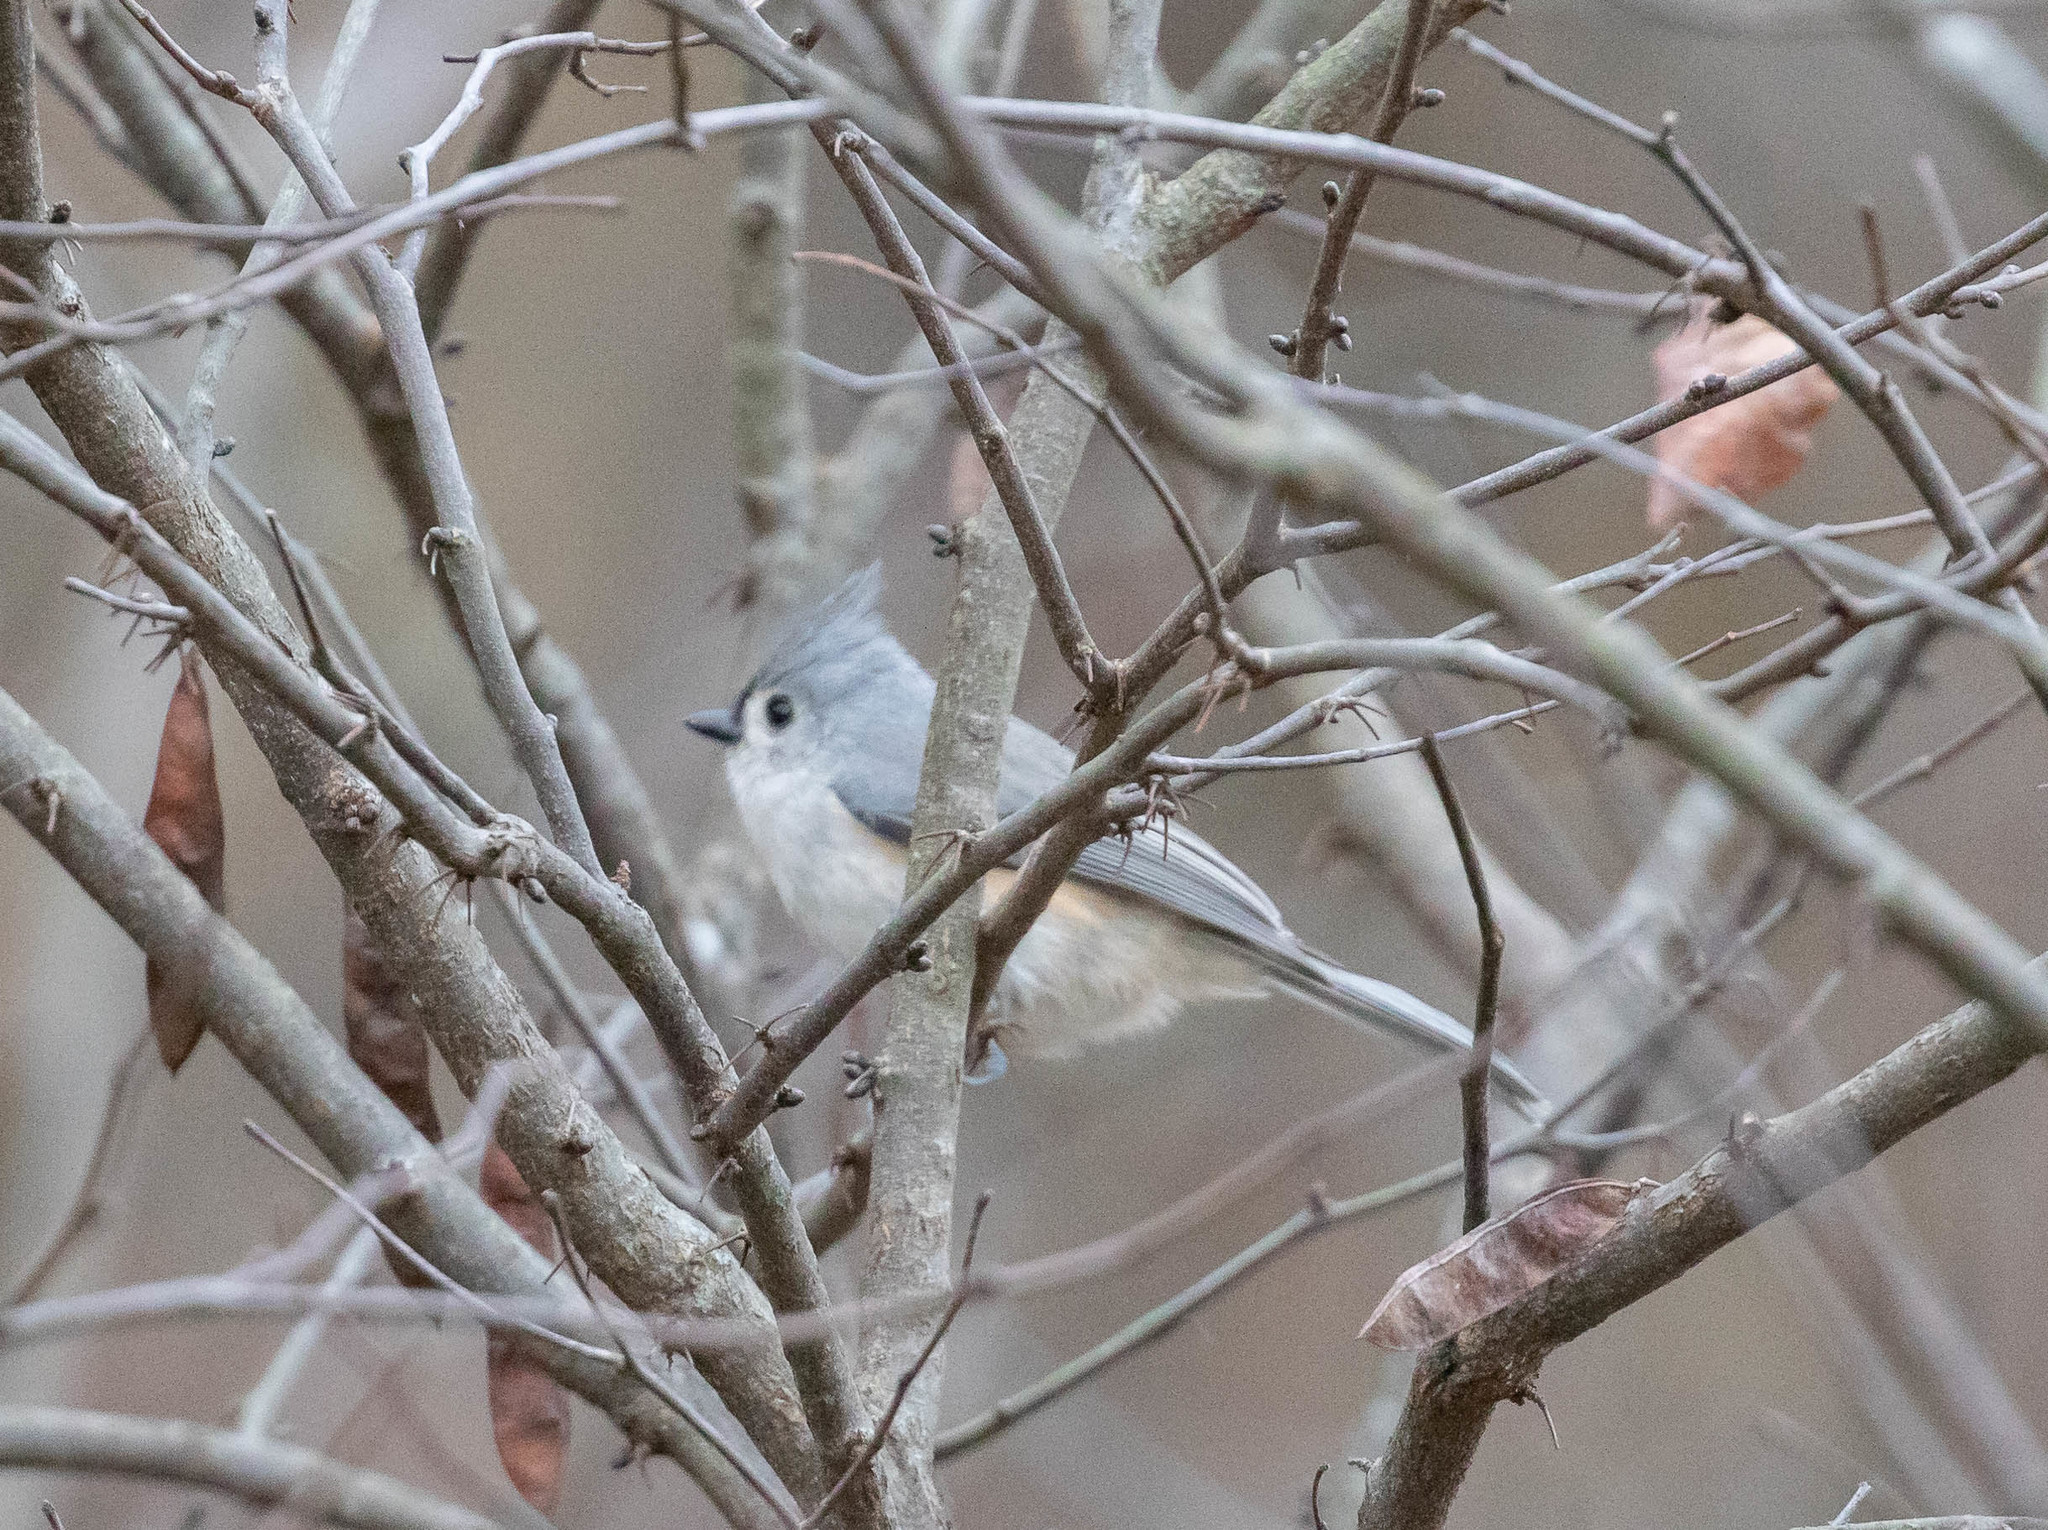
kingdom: Animalia
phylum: Chordata
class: Aves
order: Passeriformes
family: Paridae
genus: Baeolophus
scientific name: Baeolophus bicolor
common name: Tufted titmouse
